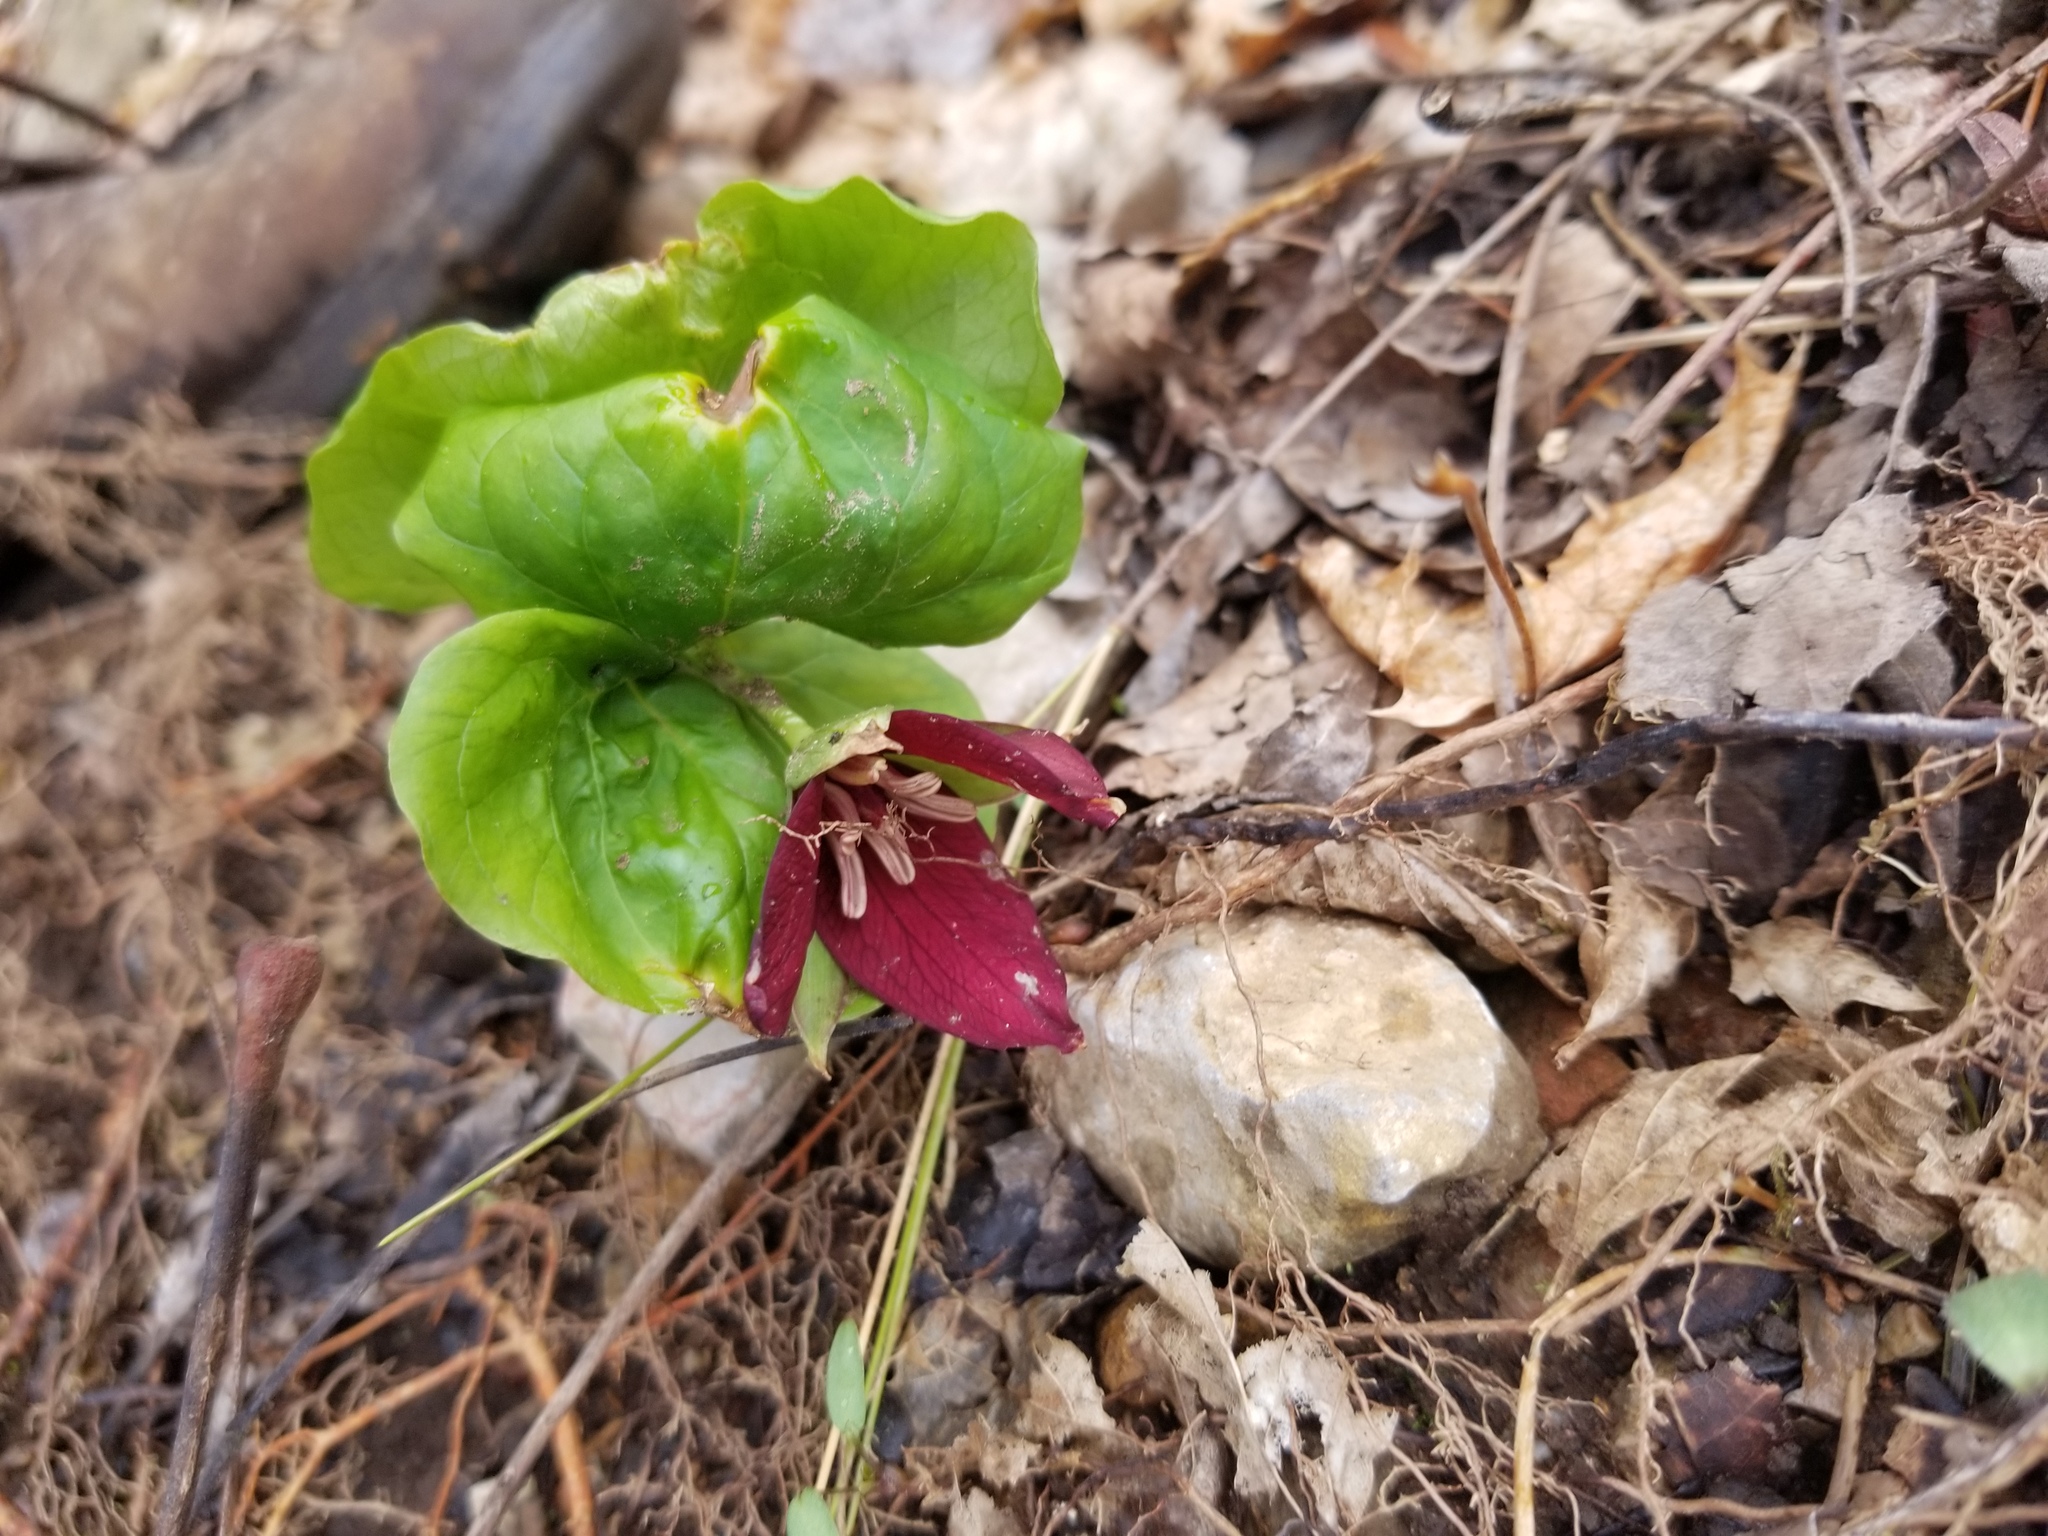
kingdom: Plantae
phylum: Tracheophyta
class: Liliopsida
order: Liliales
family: Melanthiaceae
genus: Trillium
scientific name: Trillium erectum
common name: Purple trillium
